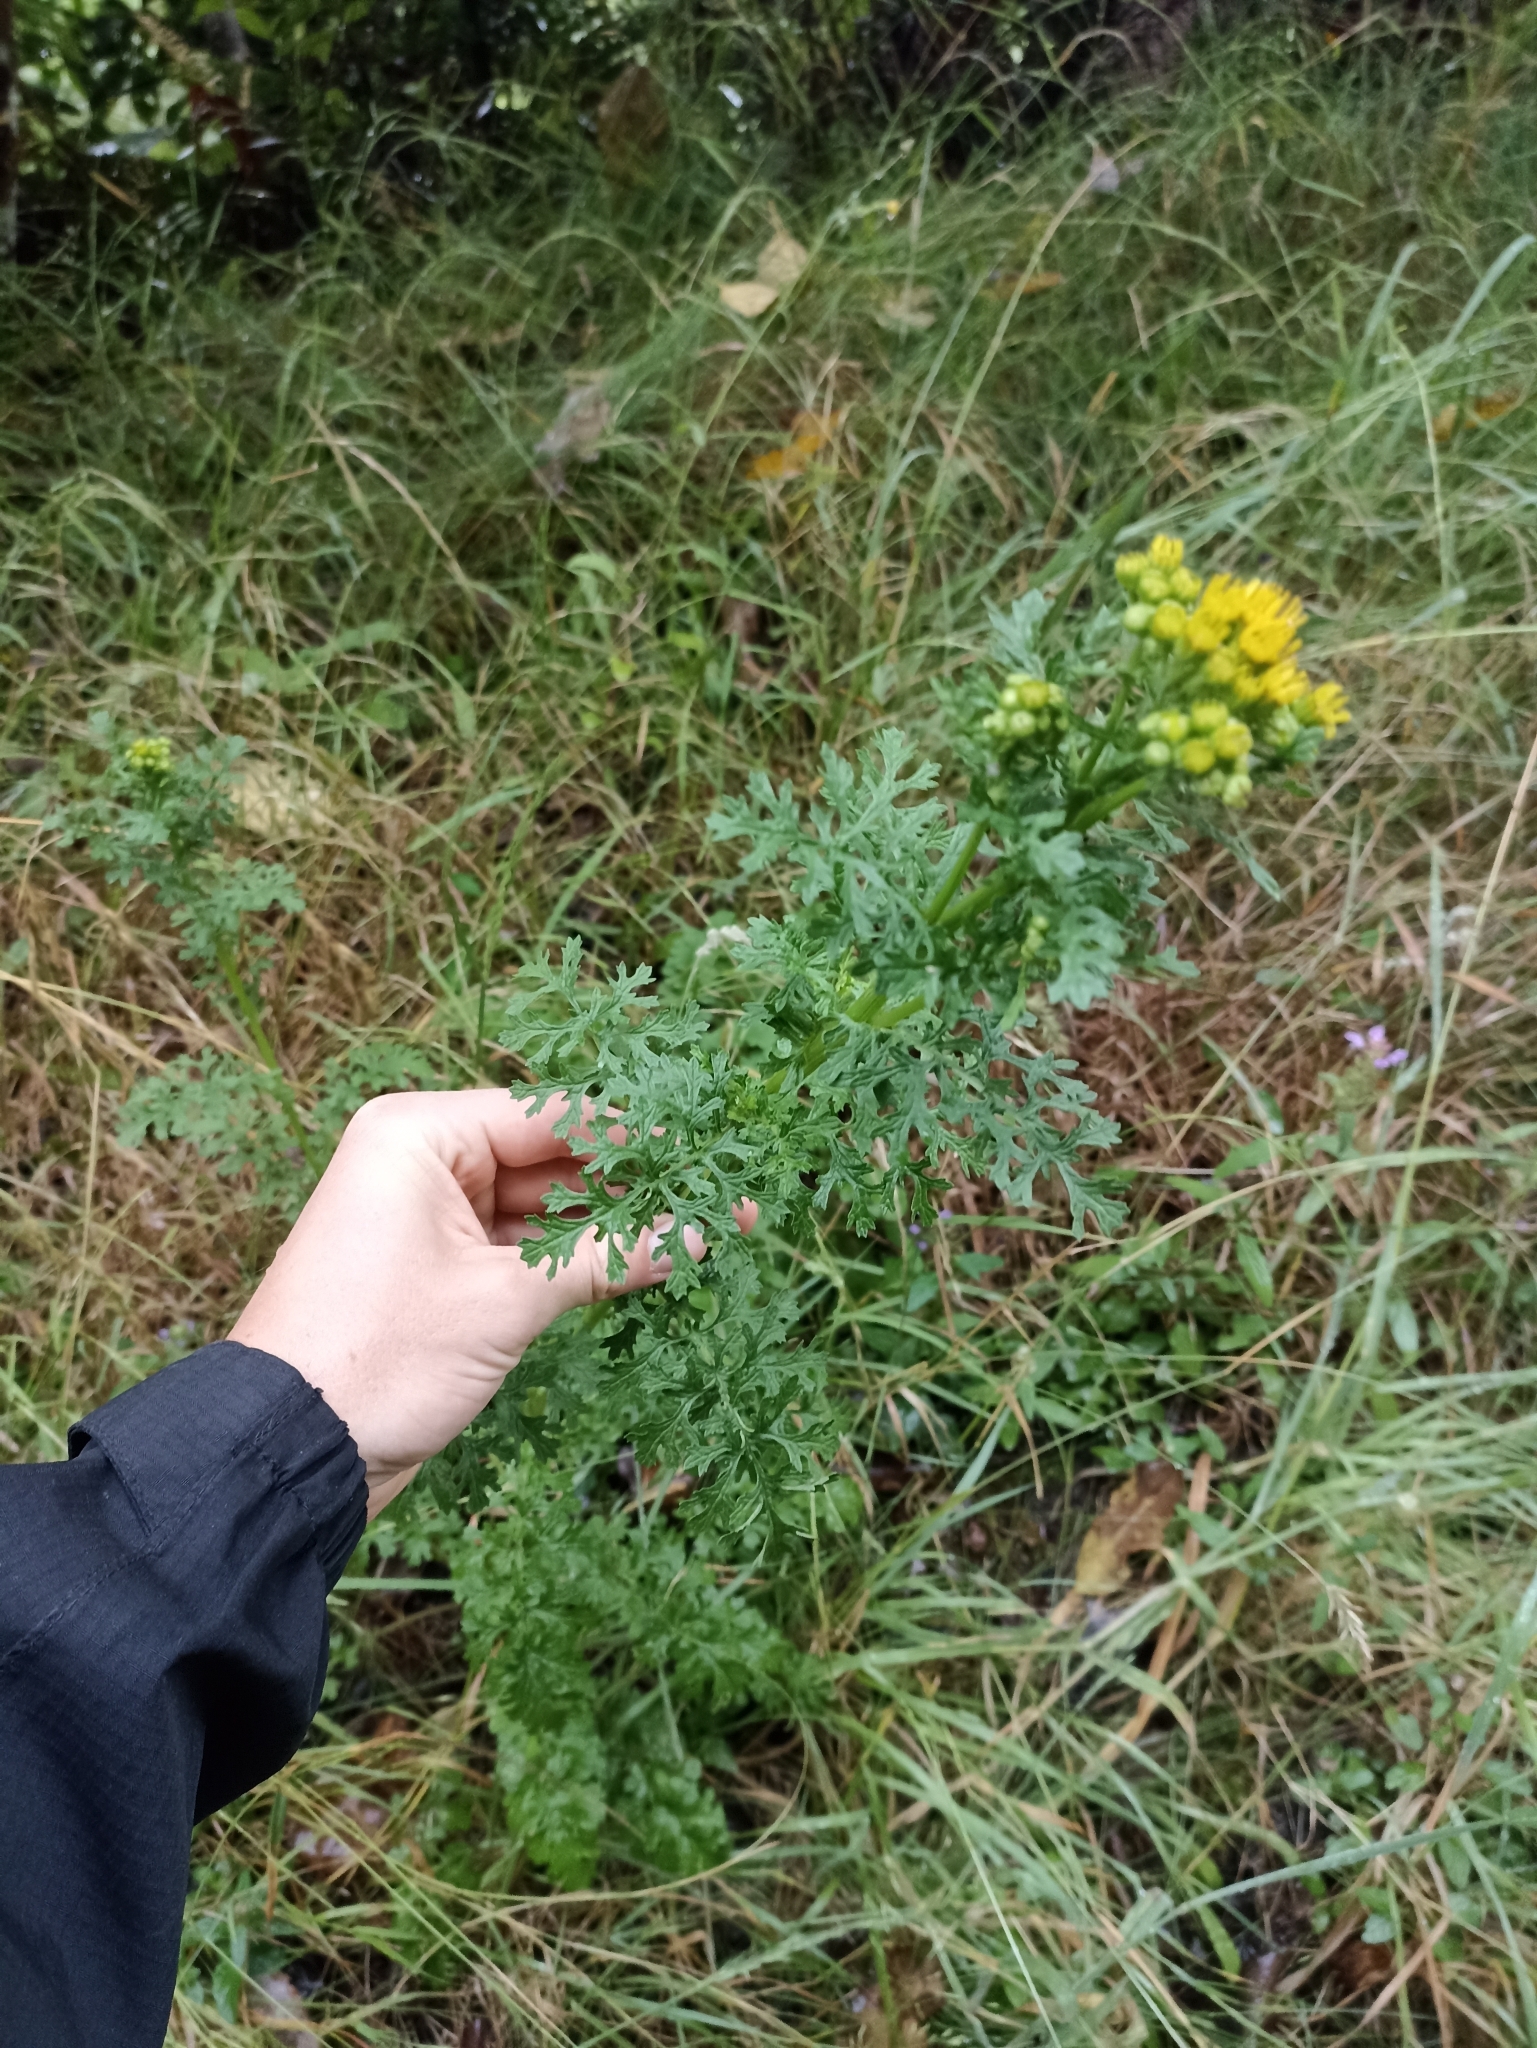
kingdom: Plantae
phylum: Tracheophyta
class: Magnoliopsida
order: Asterales
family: Asteraceae
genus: Jacobaea
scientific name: Jacobaea vulgaris
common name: Stinking willie
